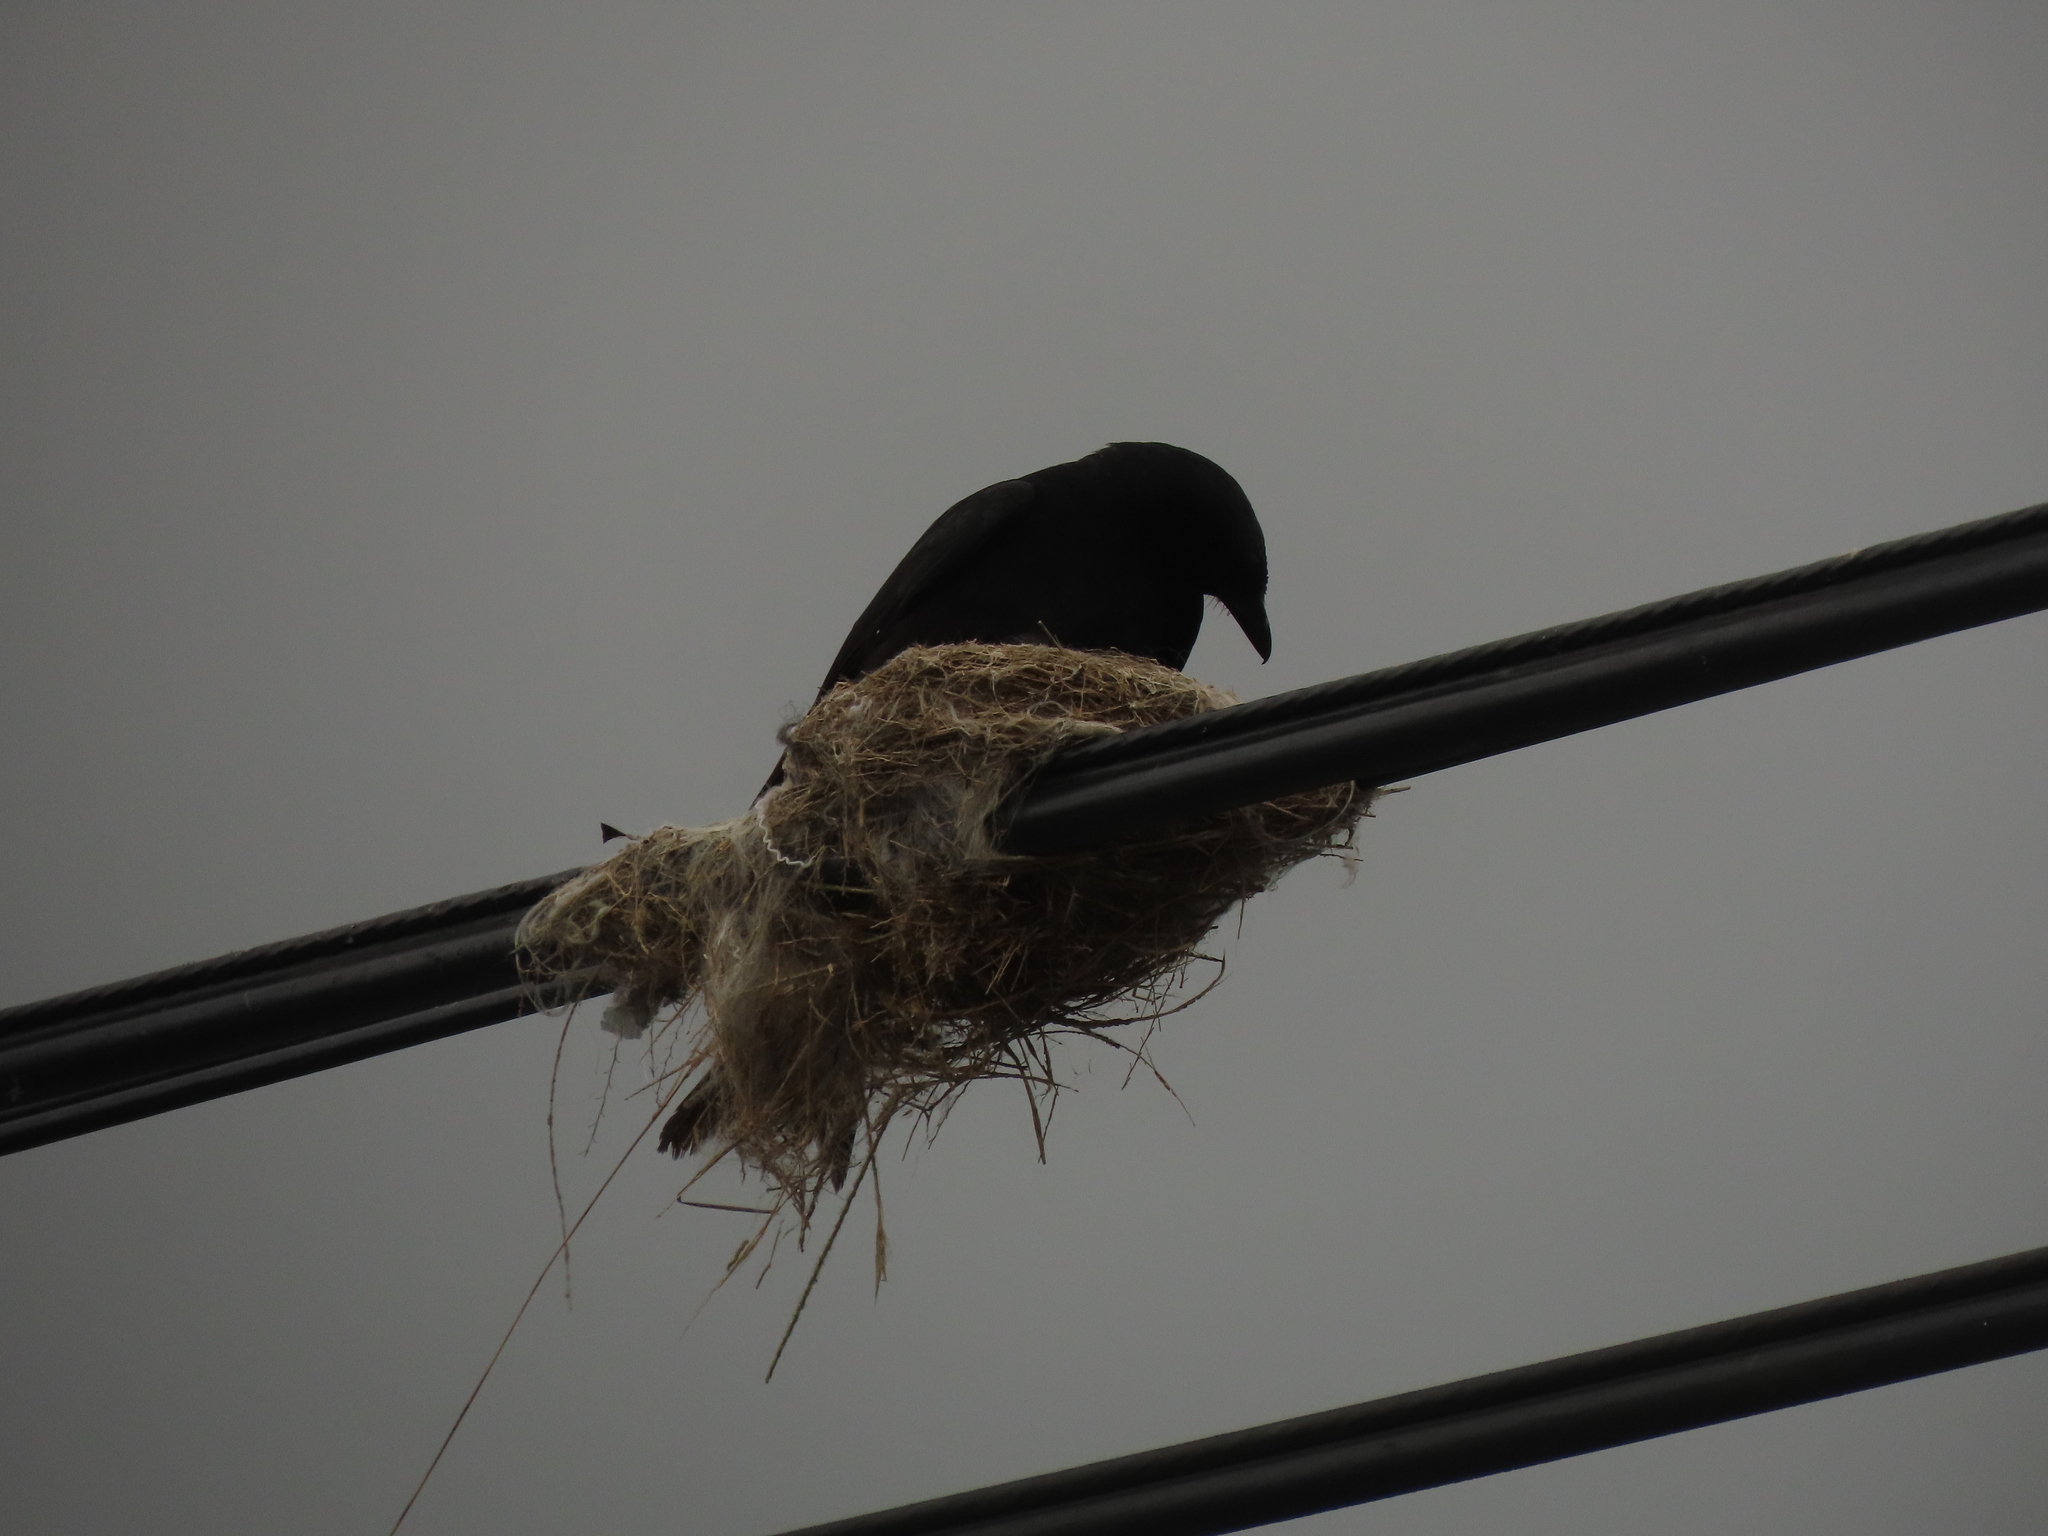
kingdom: Animalia
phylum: Chordata
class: Aves
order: Passeriformes
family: Dicruridae
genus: Dicrurus
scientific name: Dicrurus macrocercus
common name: Black drongo
